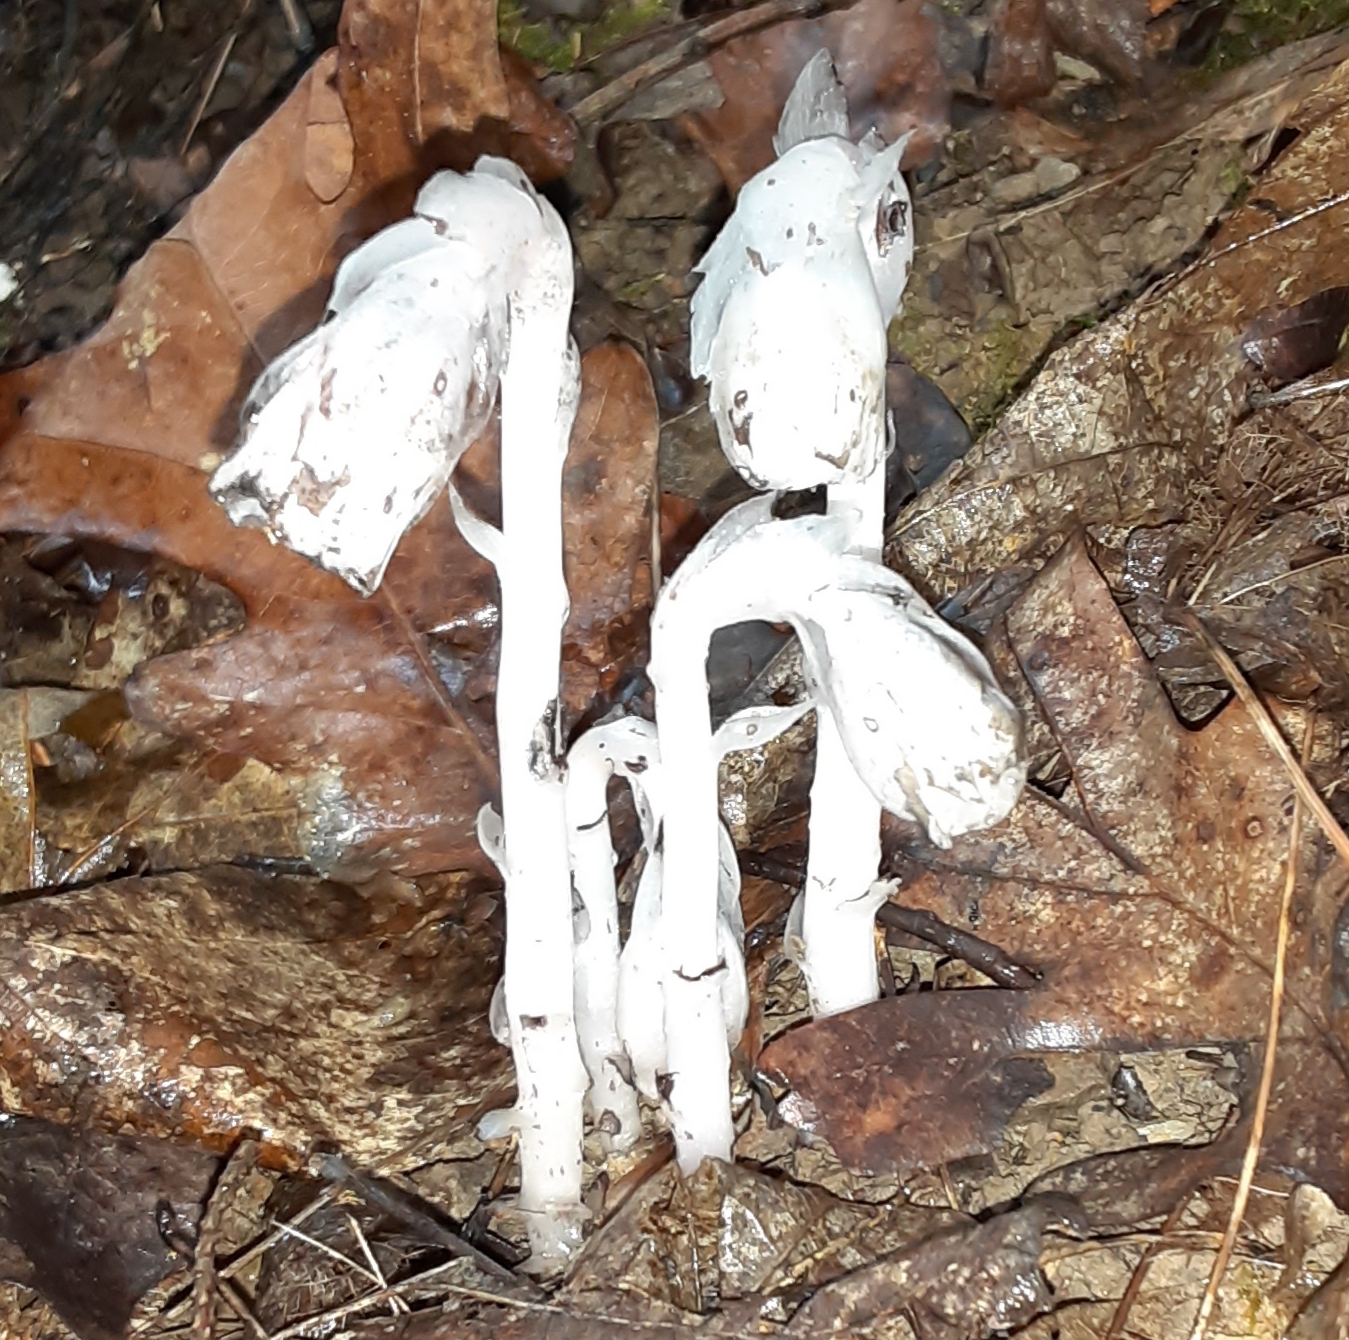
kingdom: Plantae
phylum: Tracheophyta
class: Magnoliopsida
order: Ericales
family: Ericaceae
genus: Monotropa
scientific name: Monotropa uniflora
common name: Convulsion root
